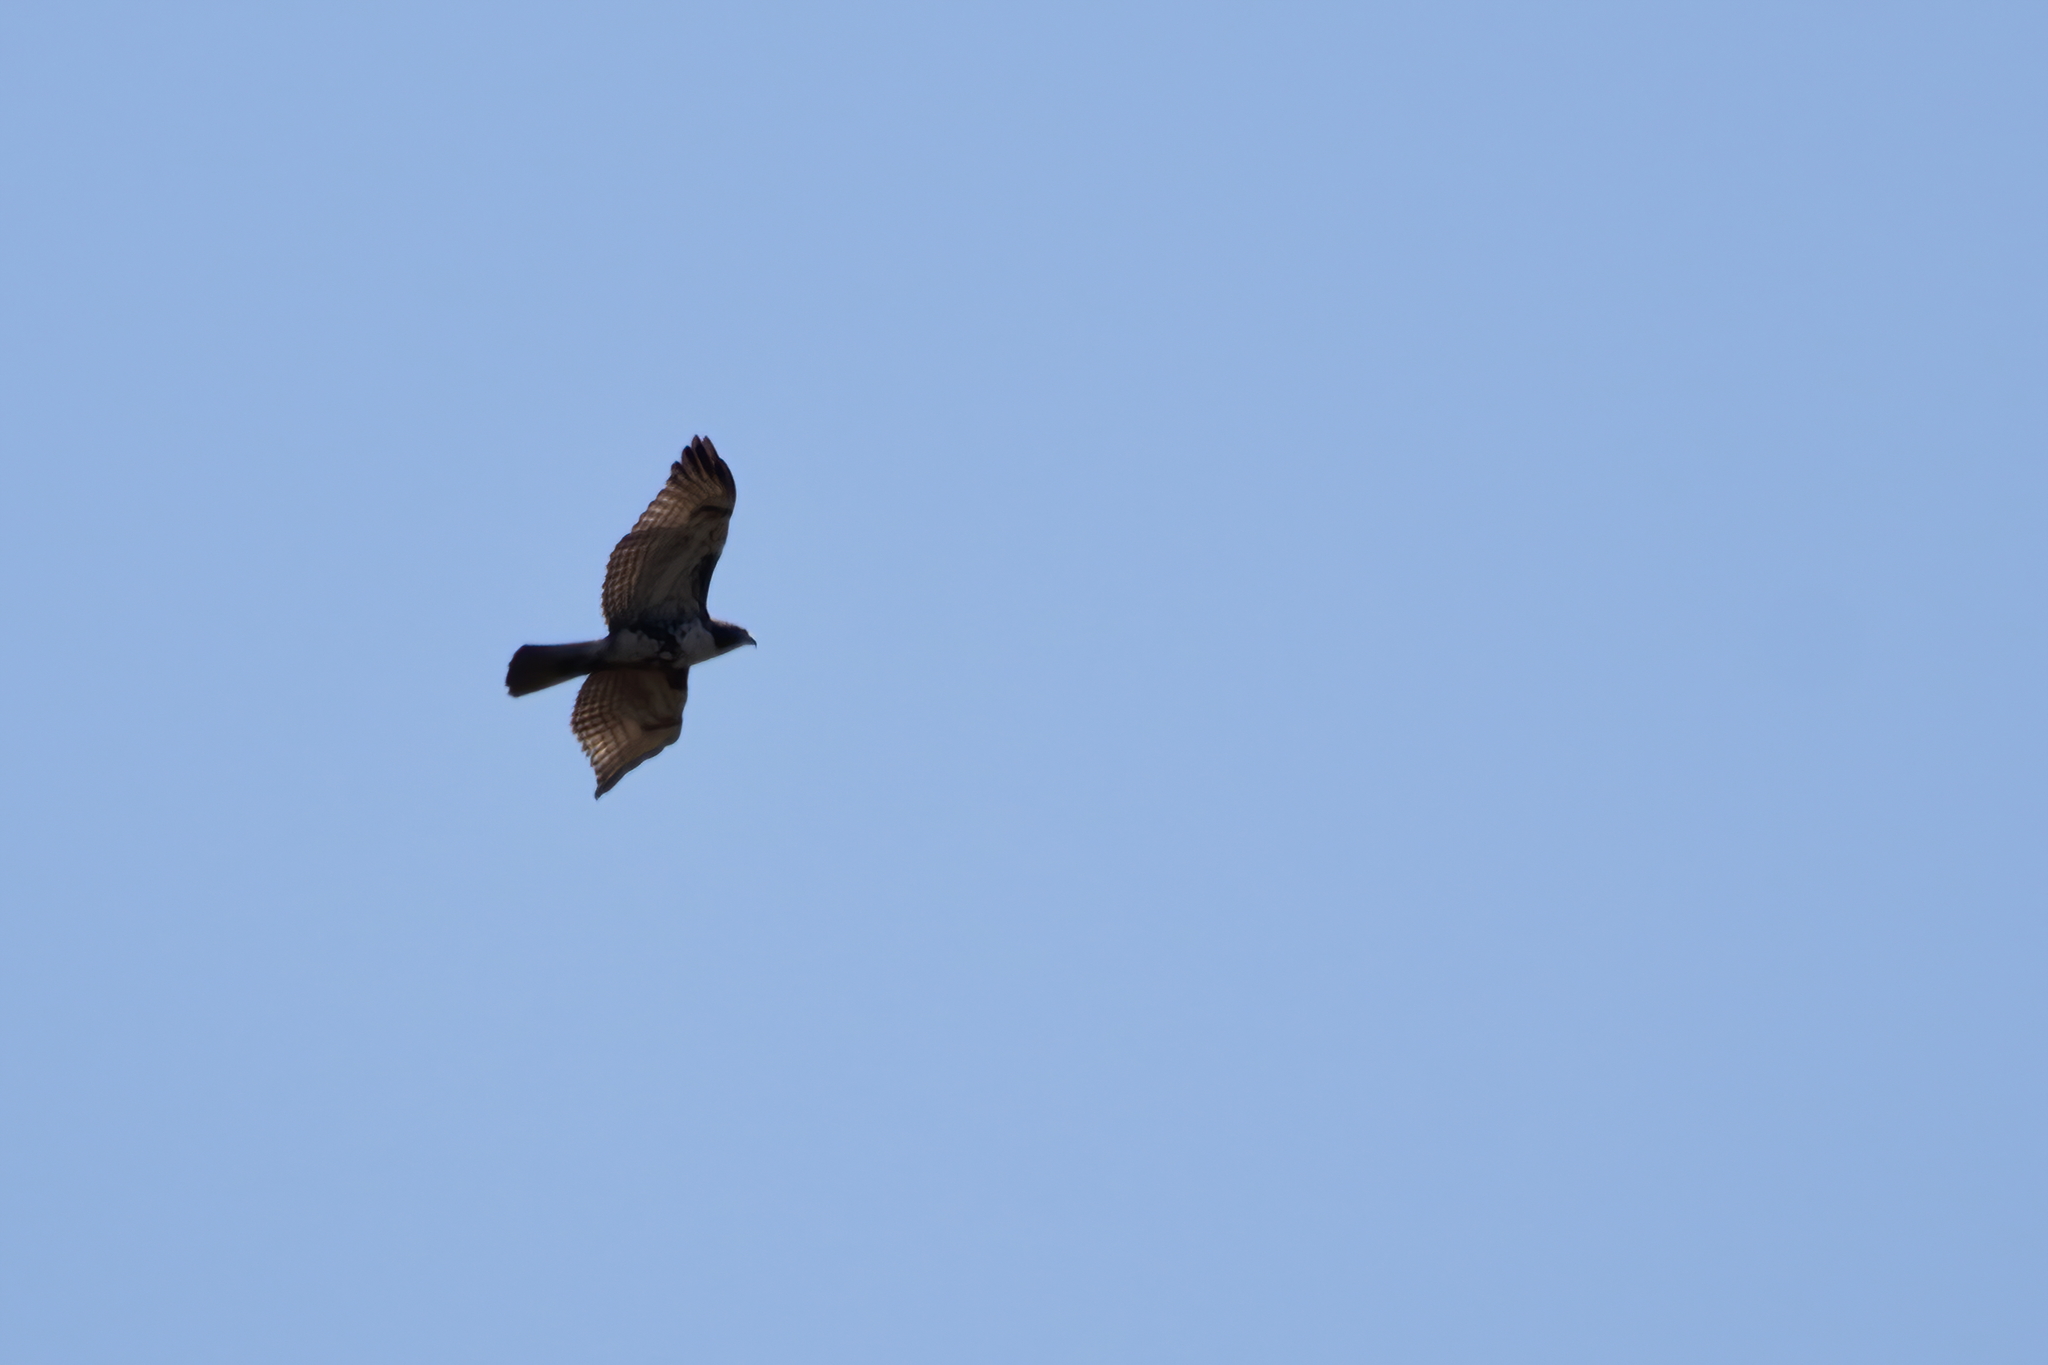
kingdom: Animalia
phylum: Chordata
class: Aves
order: Accipitriformes
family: Accipitridae
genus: Buteo
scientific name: Buteo jamaicensis
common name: Red-tailed hawk
